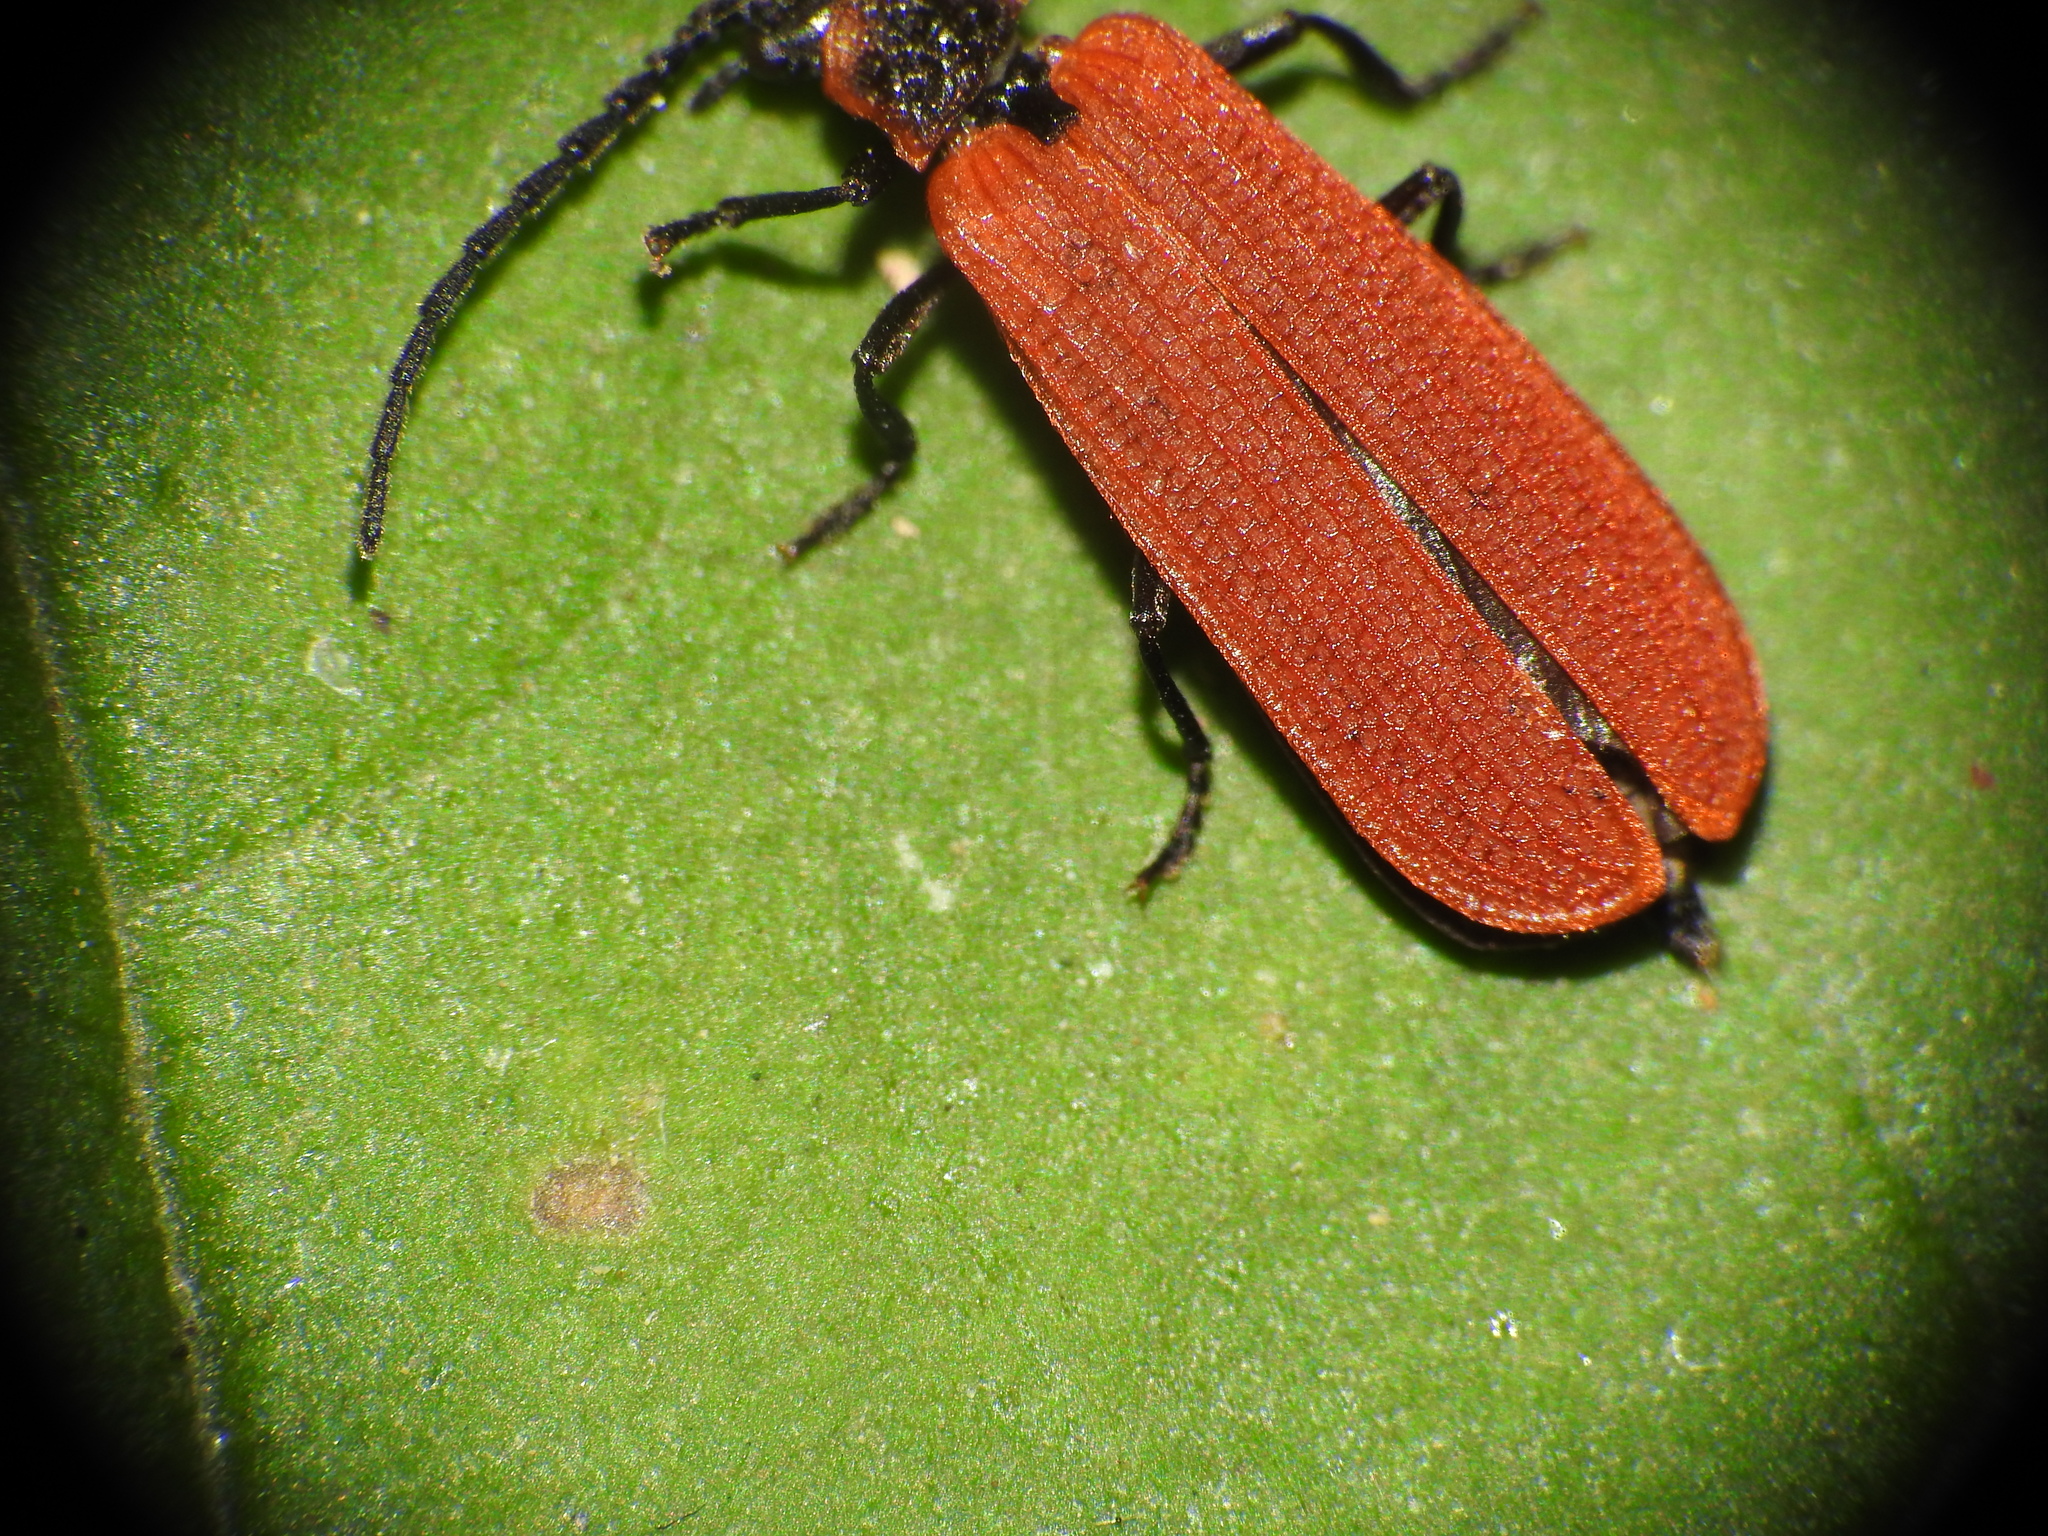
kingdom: Animalia
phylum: Arthropoda
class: Insecta
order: Coleoptera
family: Lycidae
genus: Dictyoptera
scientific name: Dictyoptera aurora
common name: Golden net-winged beetle
